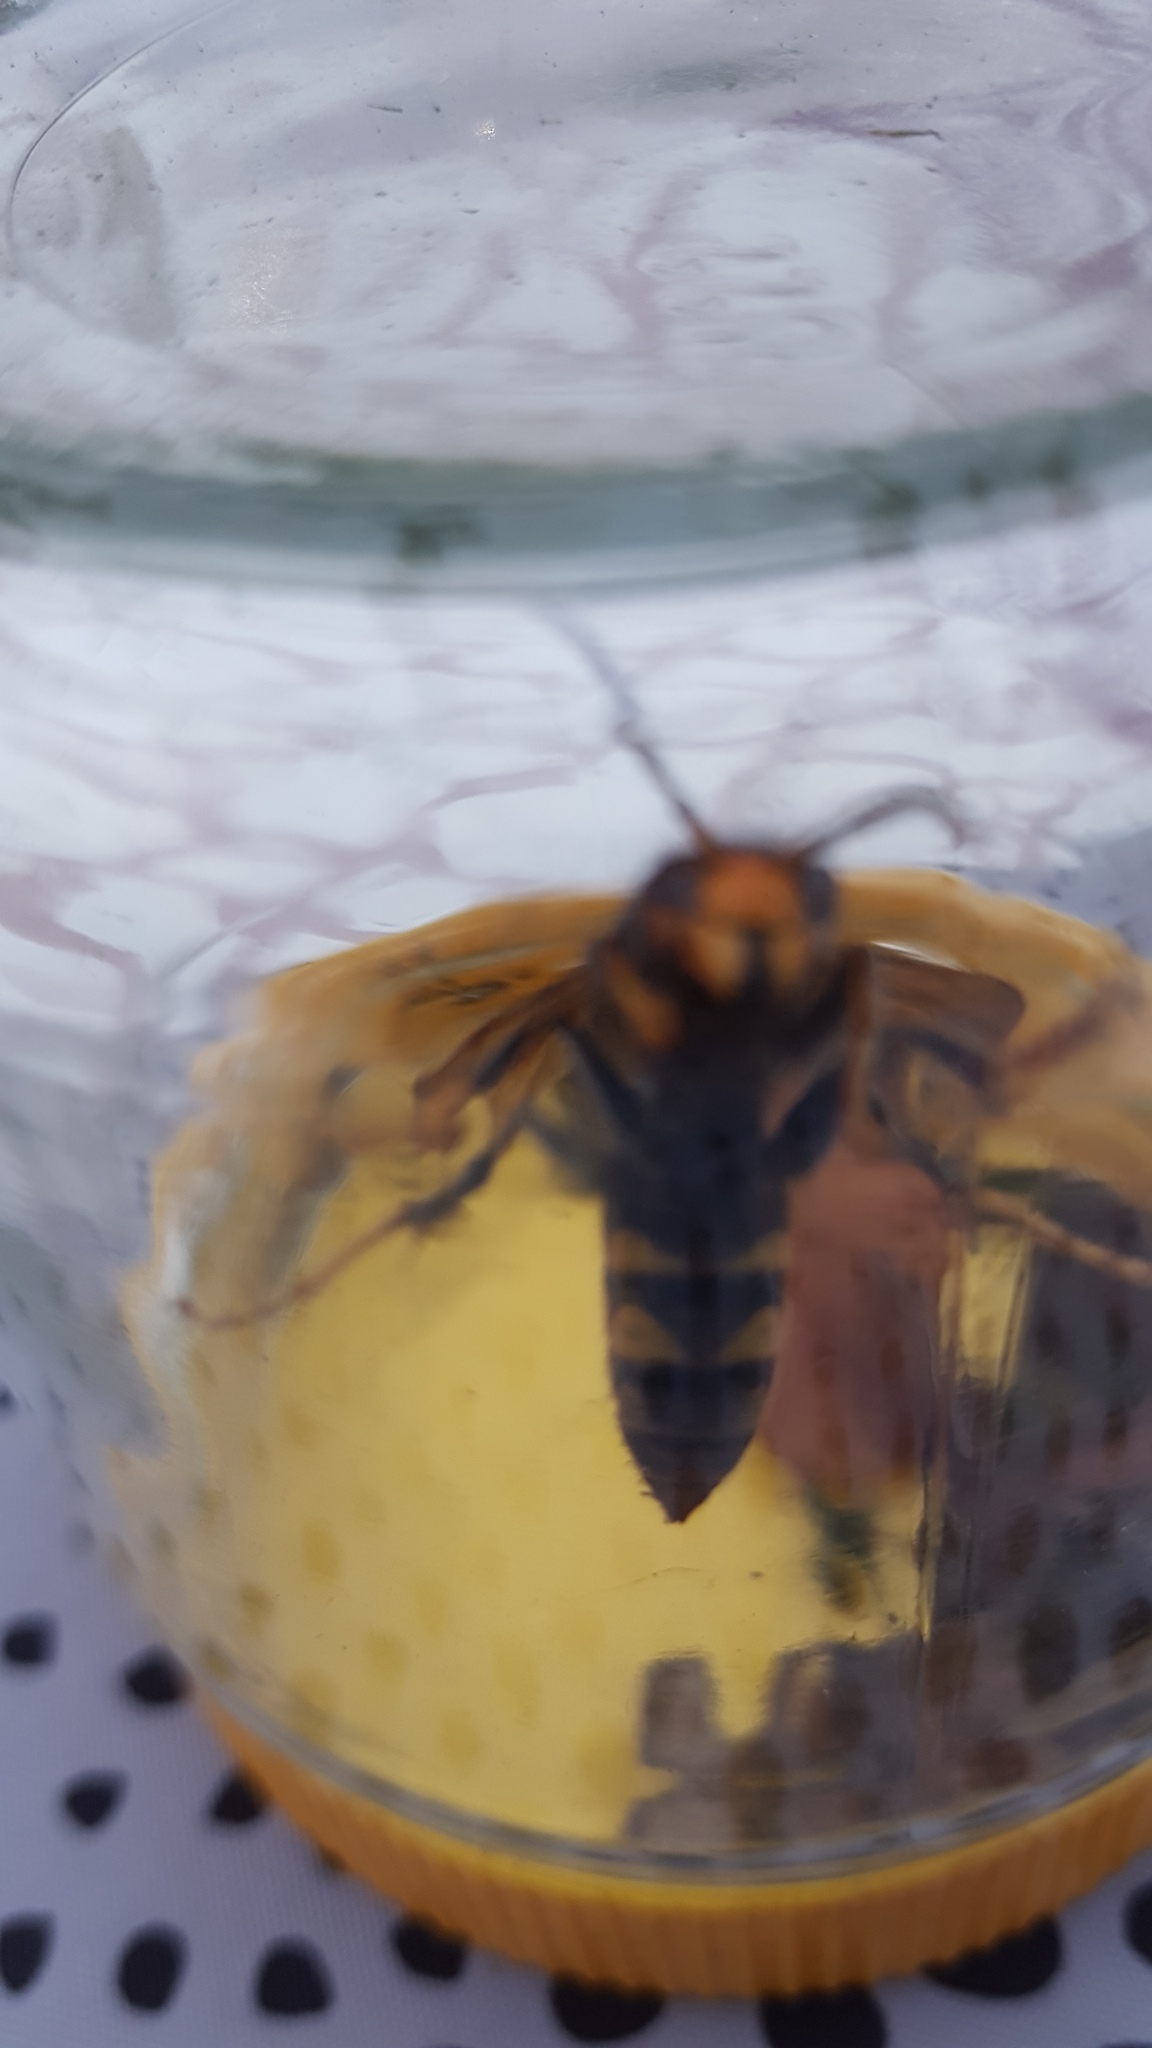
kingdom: Animalia
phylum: Arthropoda
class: Insecta
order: Hymenoptera
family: Vespidae
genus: Vespa
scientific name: Vespa velutina
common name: Asian hornet
